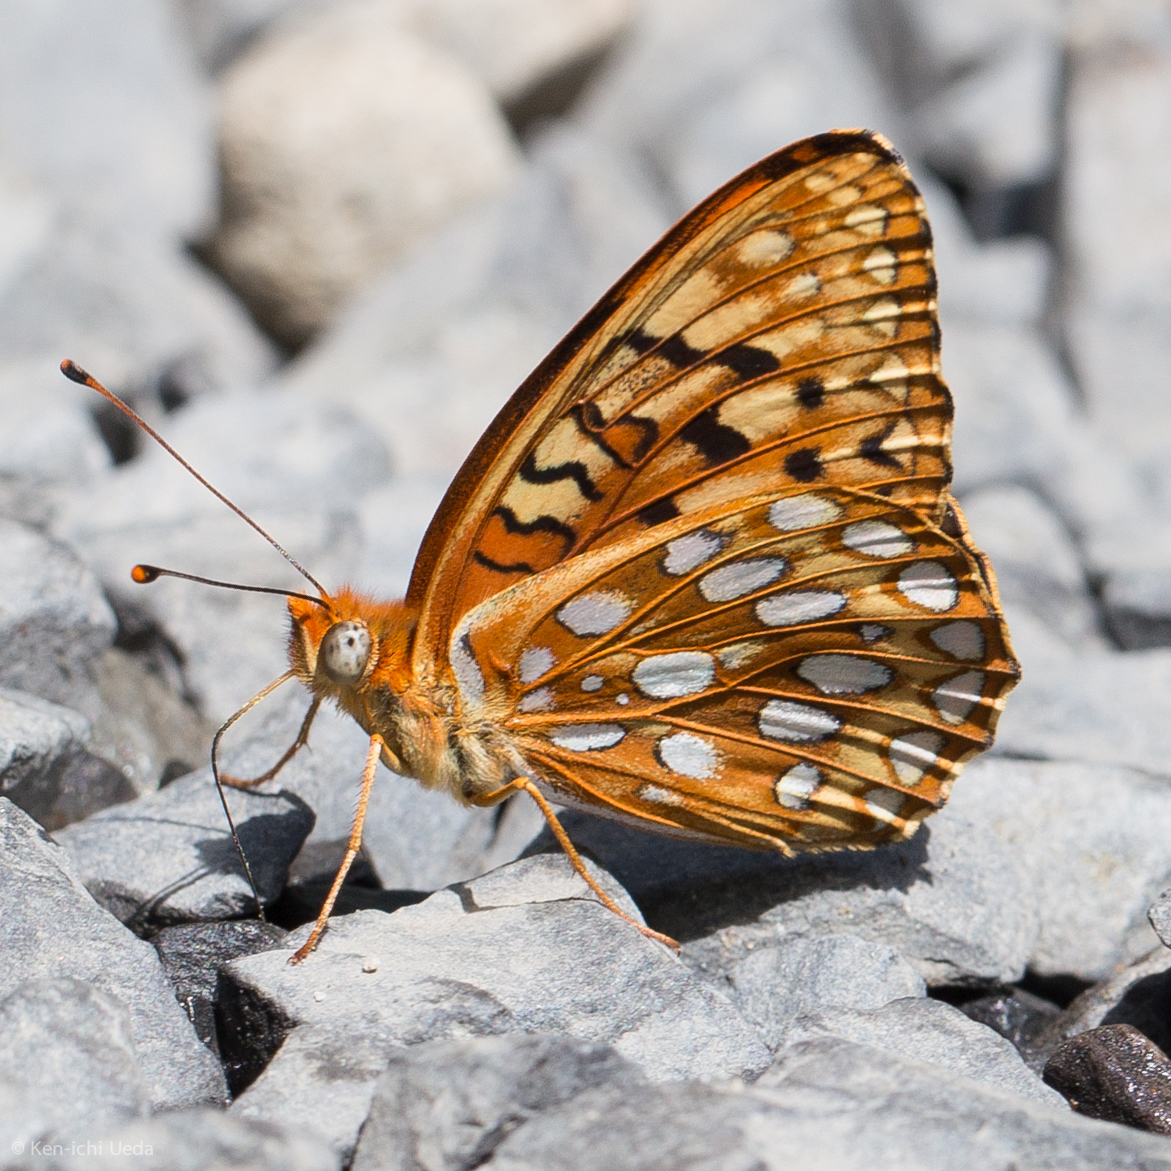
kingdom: Animalia
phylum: Arthropoda
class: Insecta
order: Lepidoptera
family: Nymphalidae
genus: Speyeria
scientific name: Speyeria callippe
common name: Callippe fritillary
